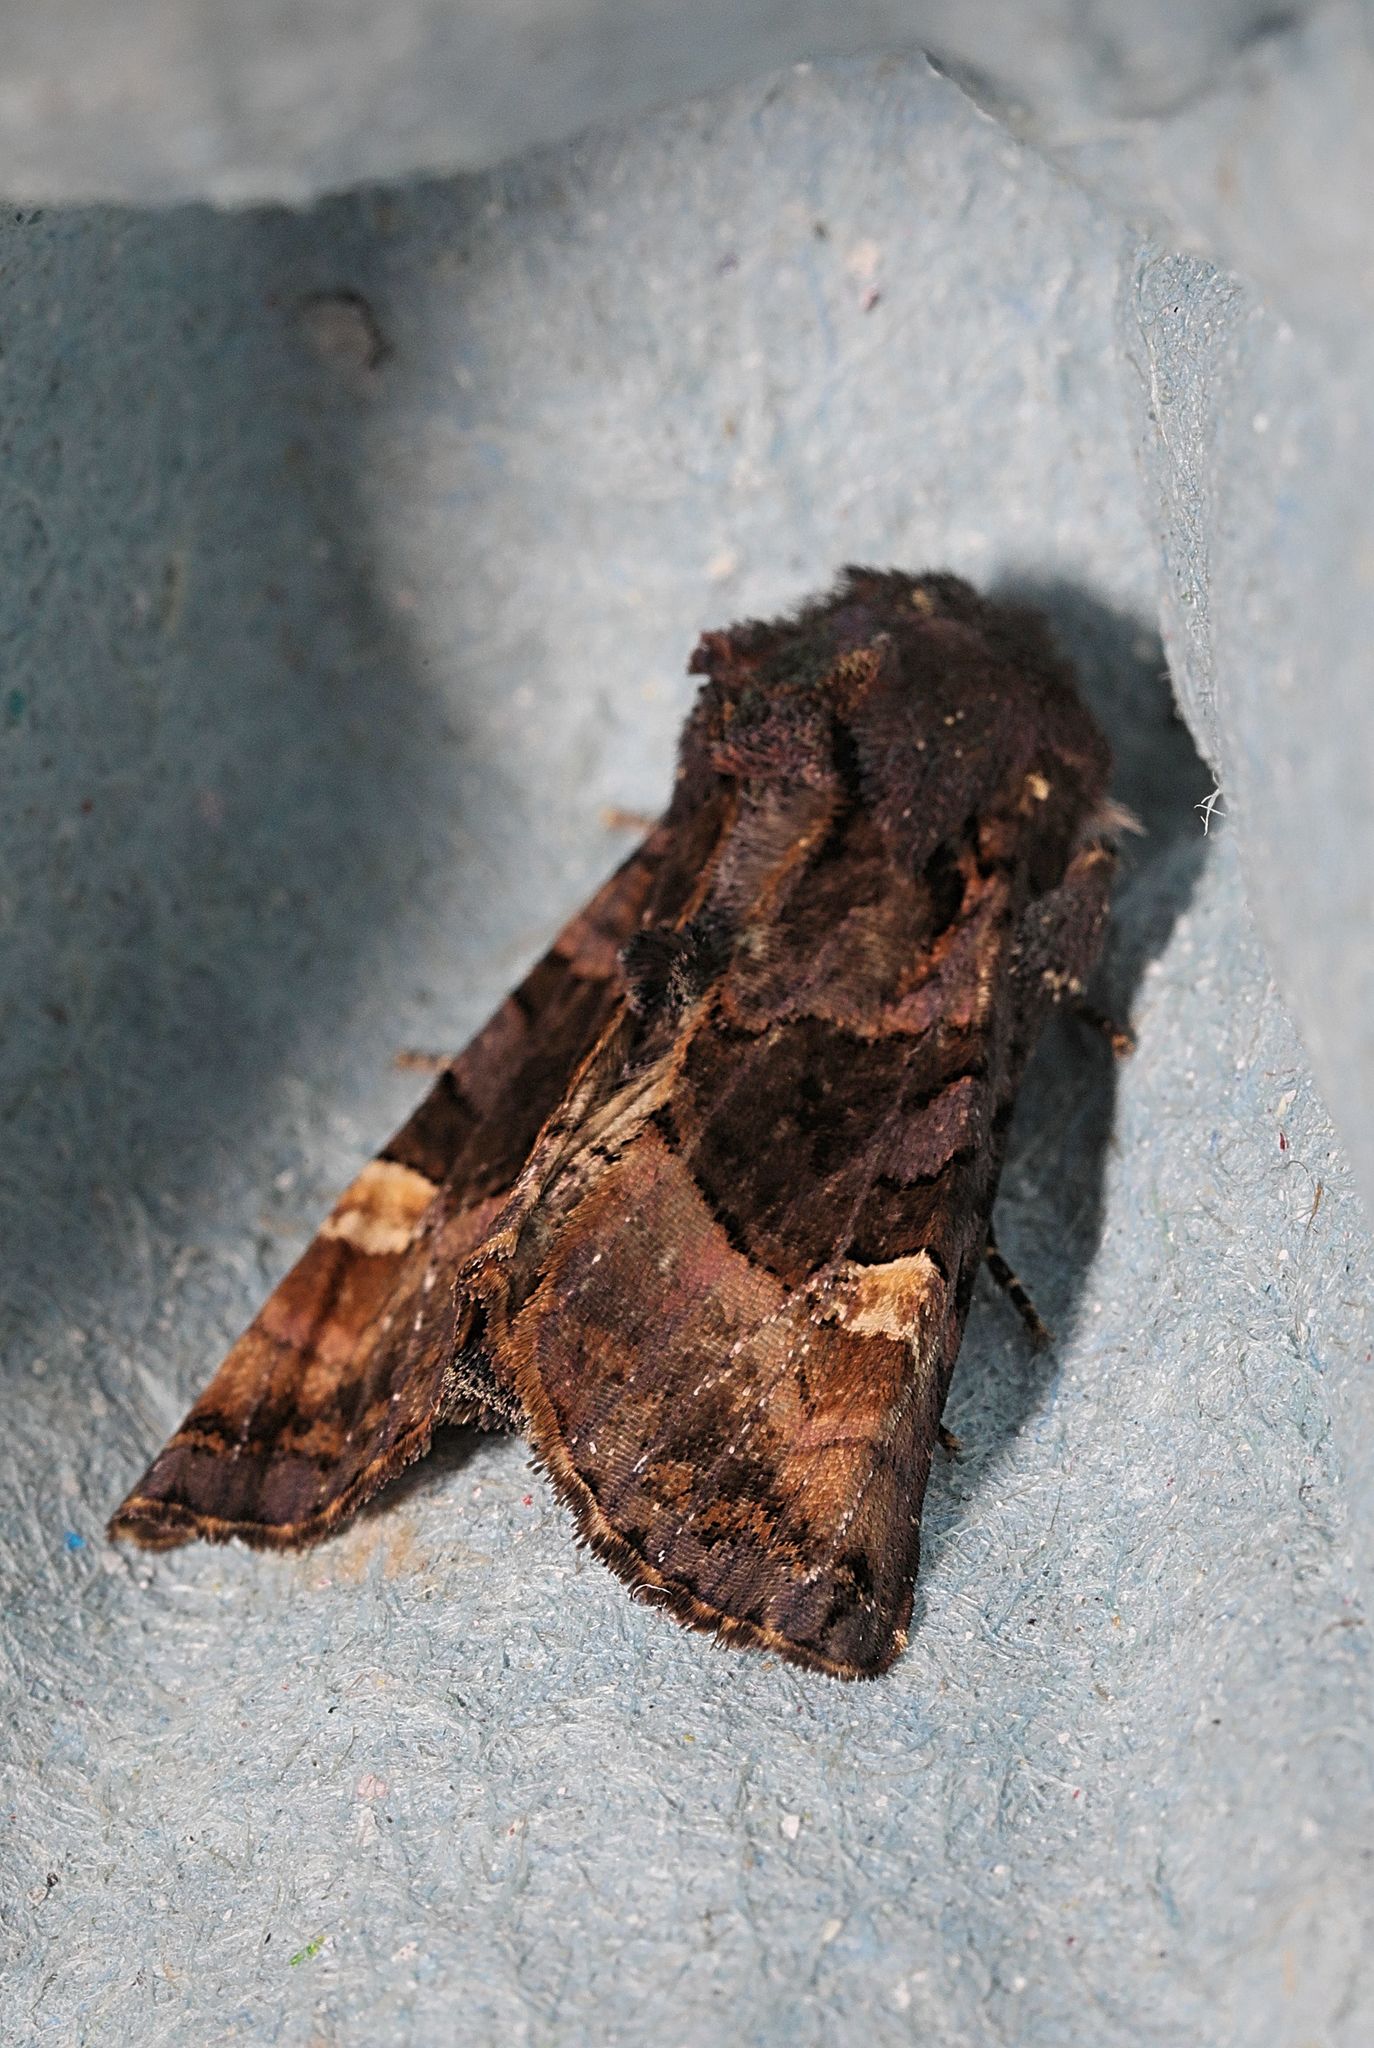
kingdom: Animalia
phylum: Arthropoda
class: Insecta
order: Lepidoptera
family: Noctuidae
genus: Euplexia
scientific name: Euplexia lucipara
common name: Small angle shades
